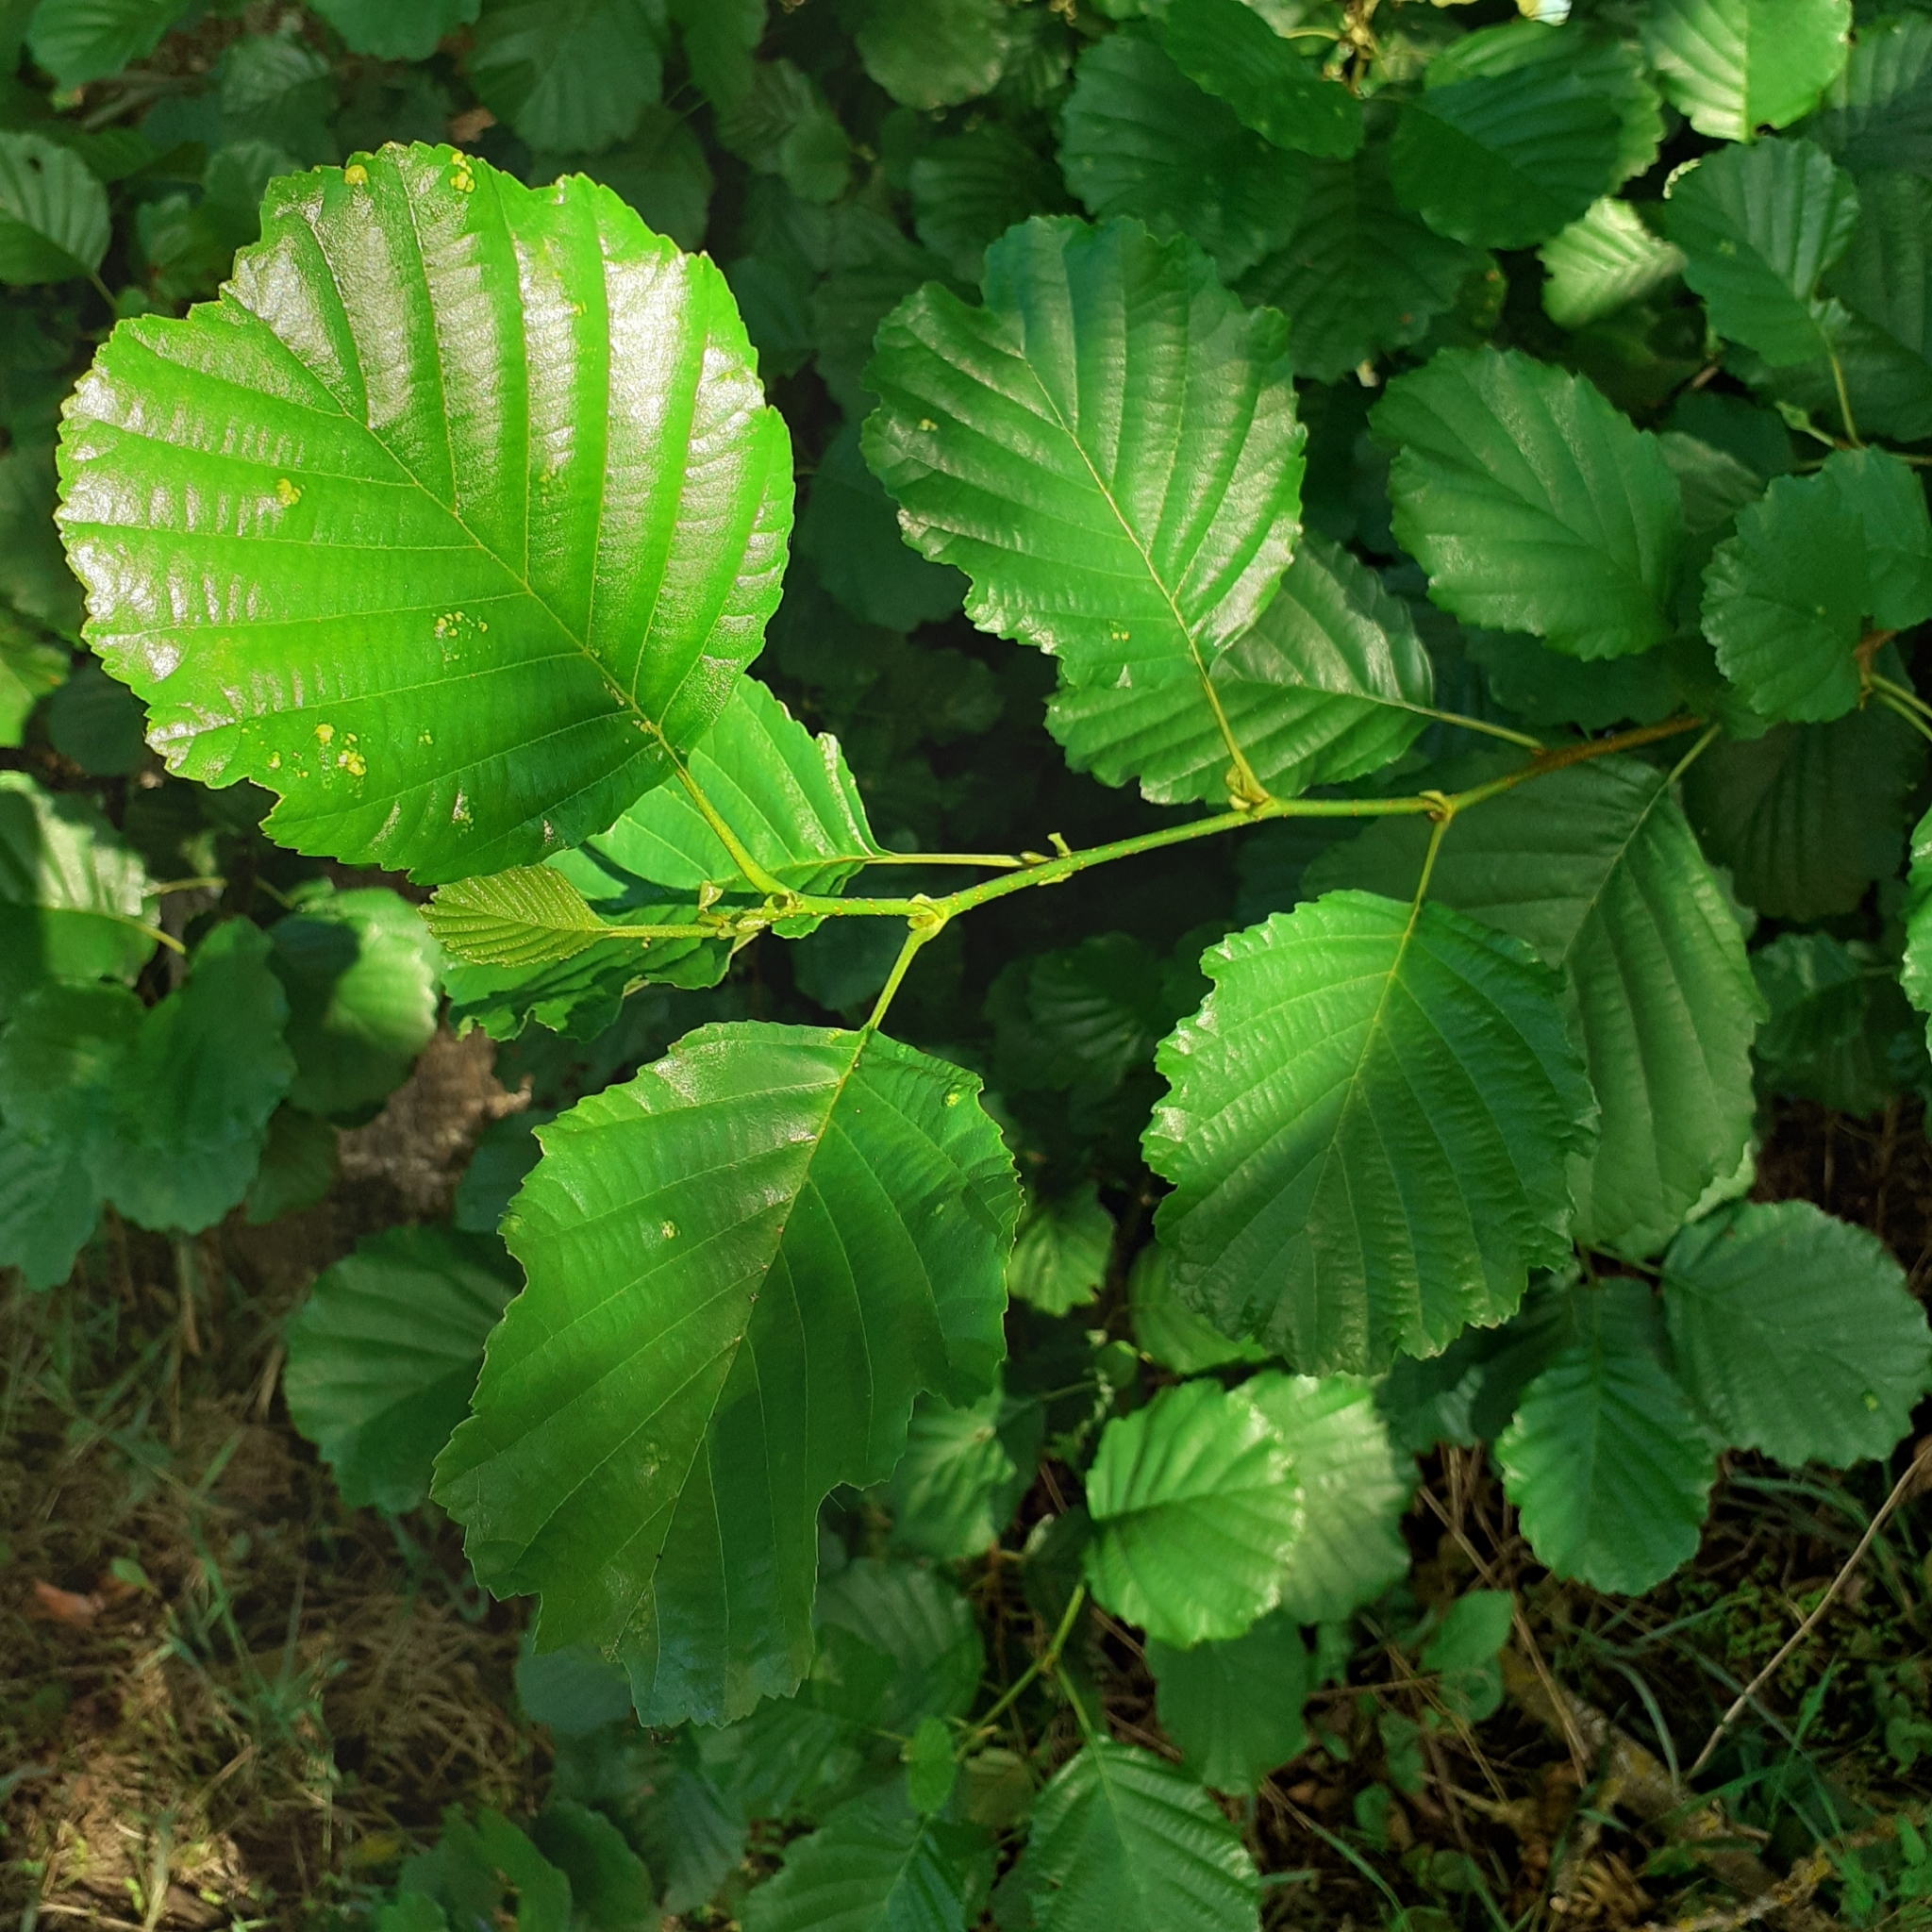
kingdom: Plantae
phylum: Tracheophyta
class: Magnoliopsida
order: Fagales
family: Betulaceae
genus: Alnus
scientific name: Alnus glutinosa
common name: Black alder
